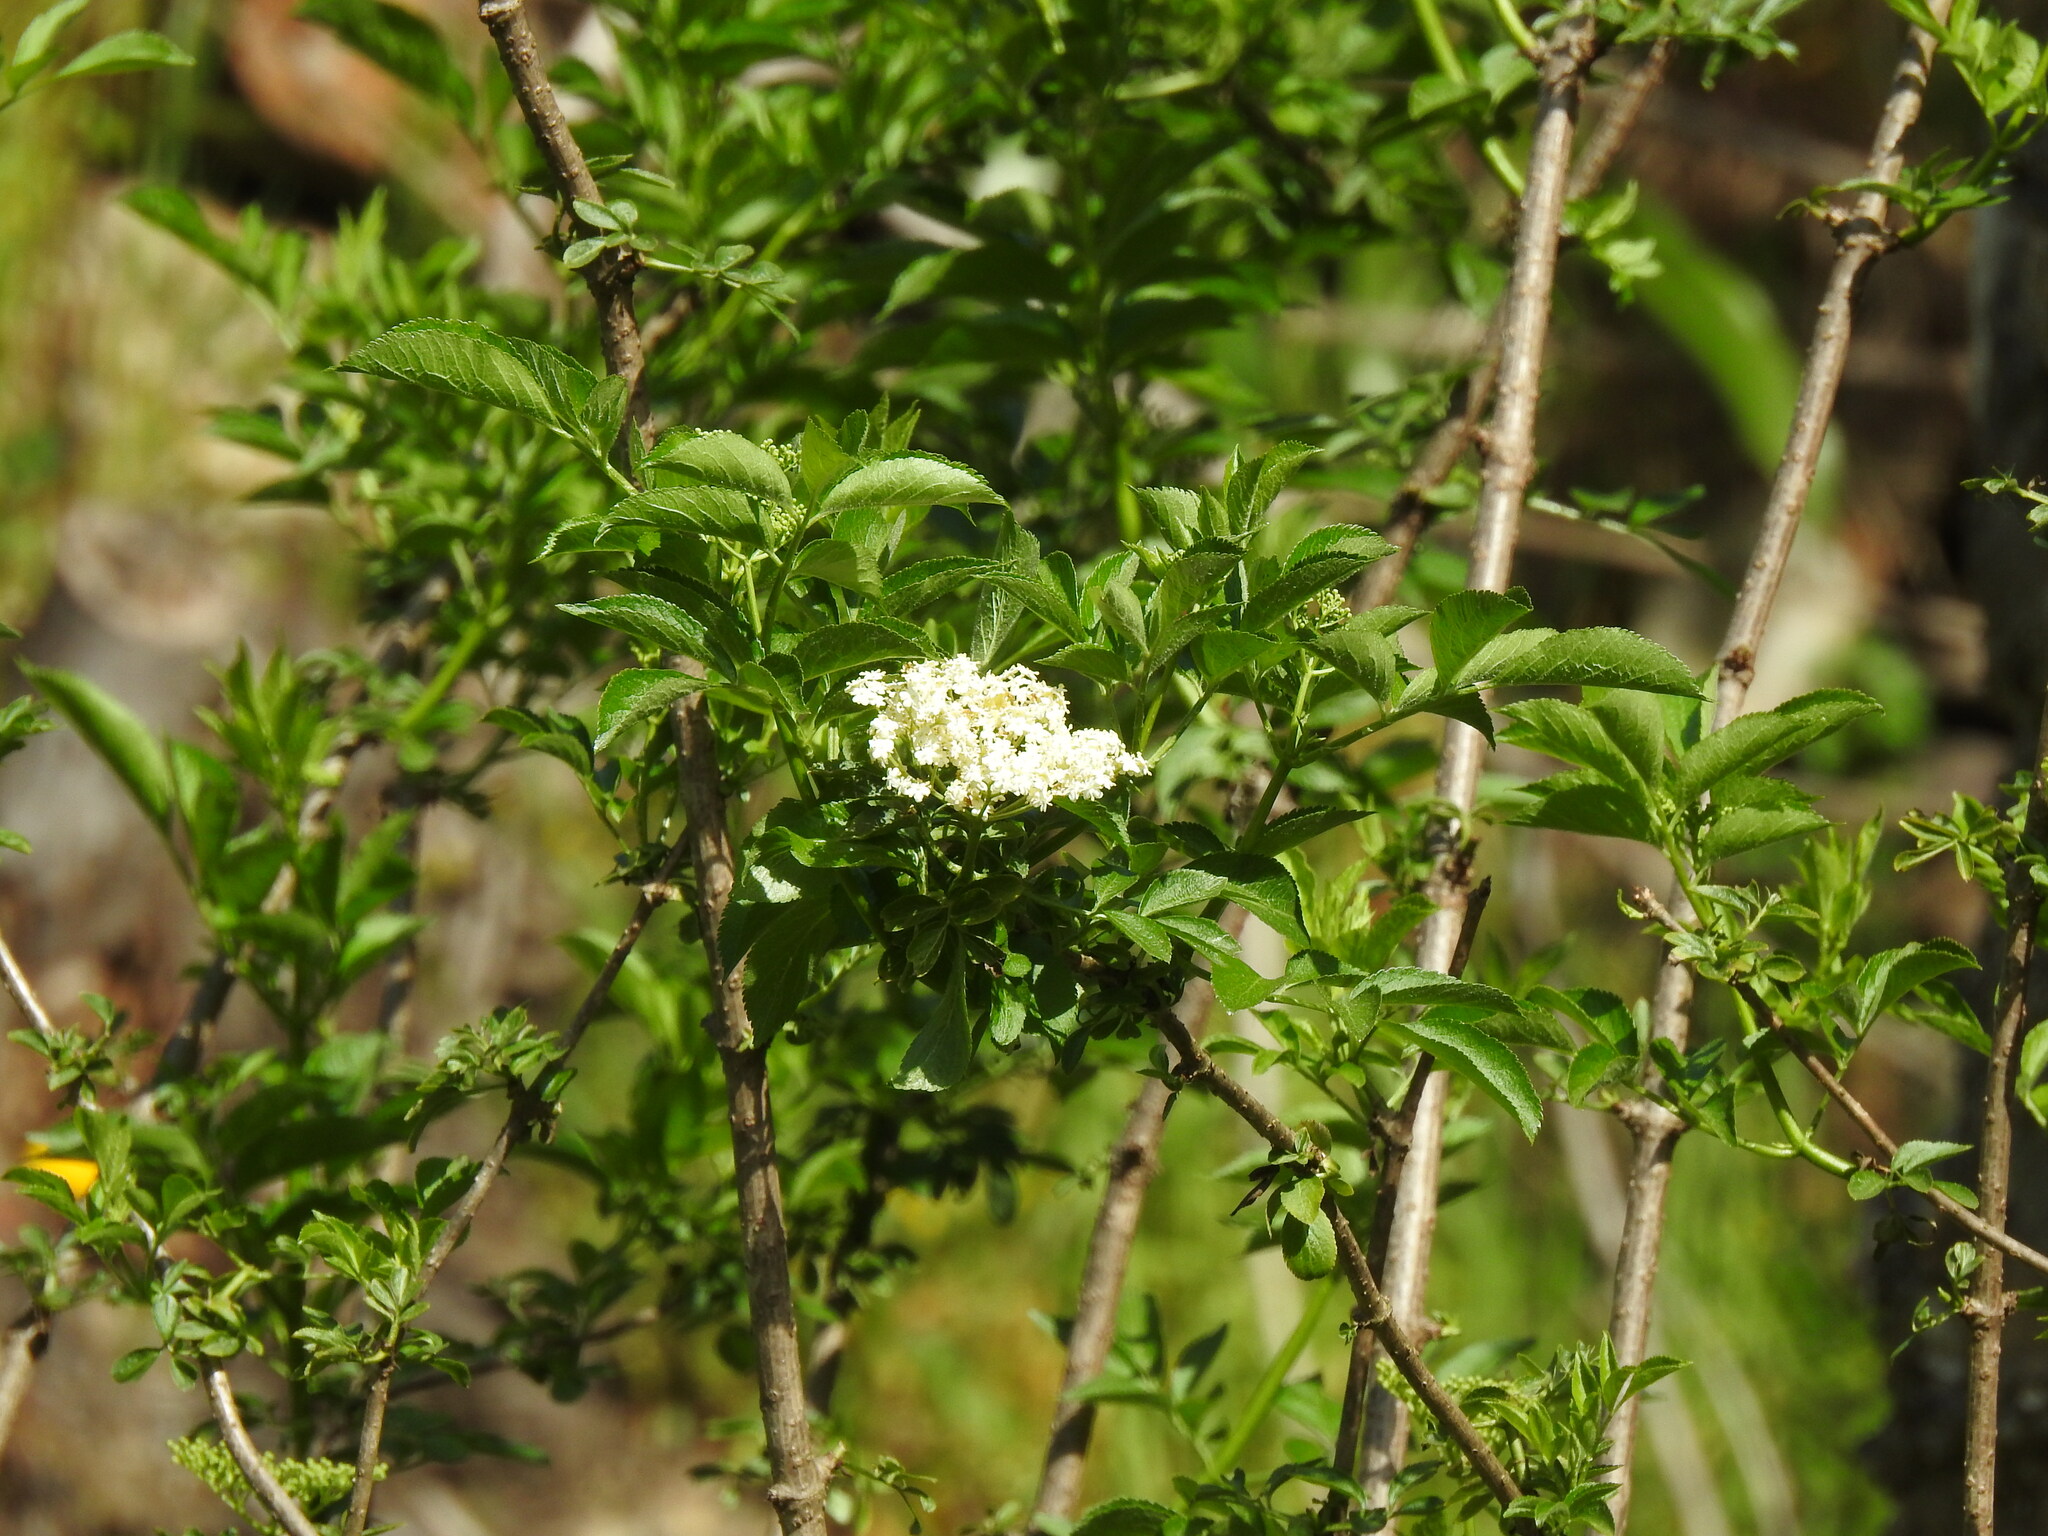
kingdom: Plantae
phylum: Tracheophyta
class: Magnoliopsida
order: Dipsacales
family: Viburnaceae
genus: Sambucus
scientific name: Sambucus nigra
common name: Elder
